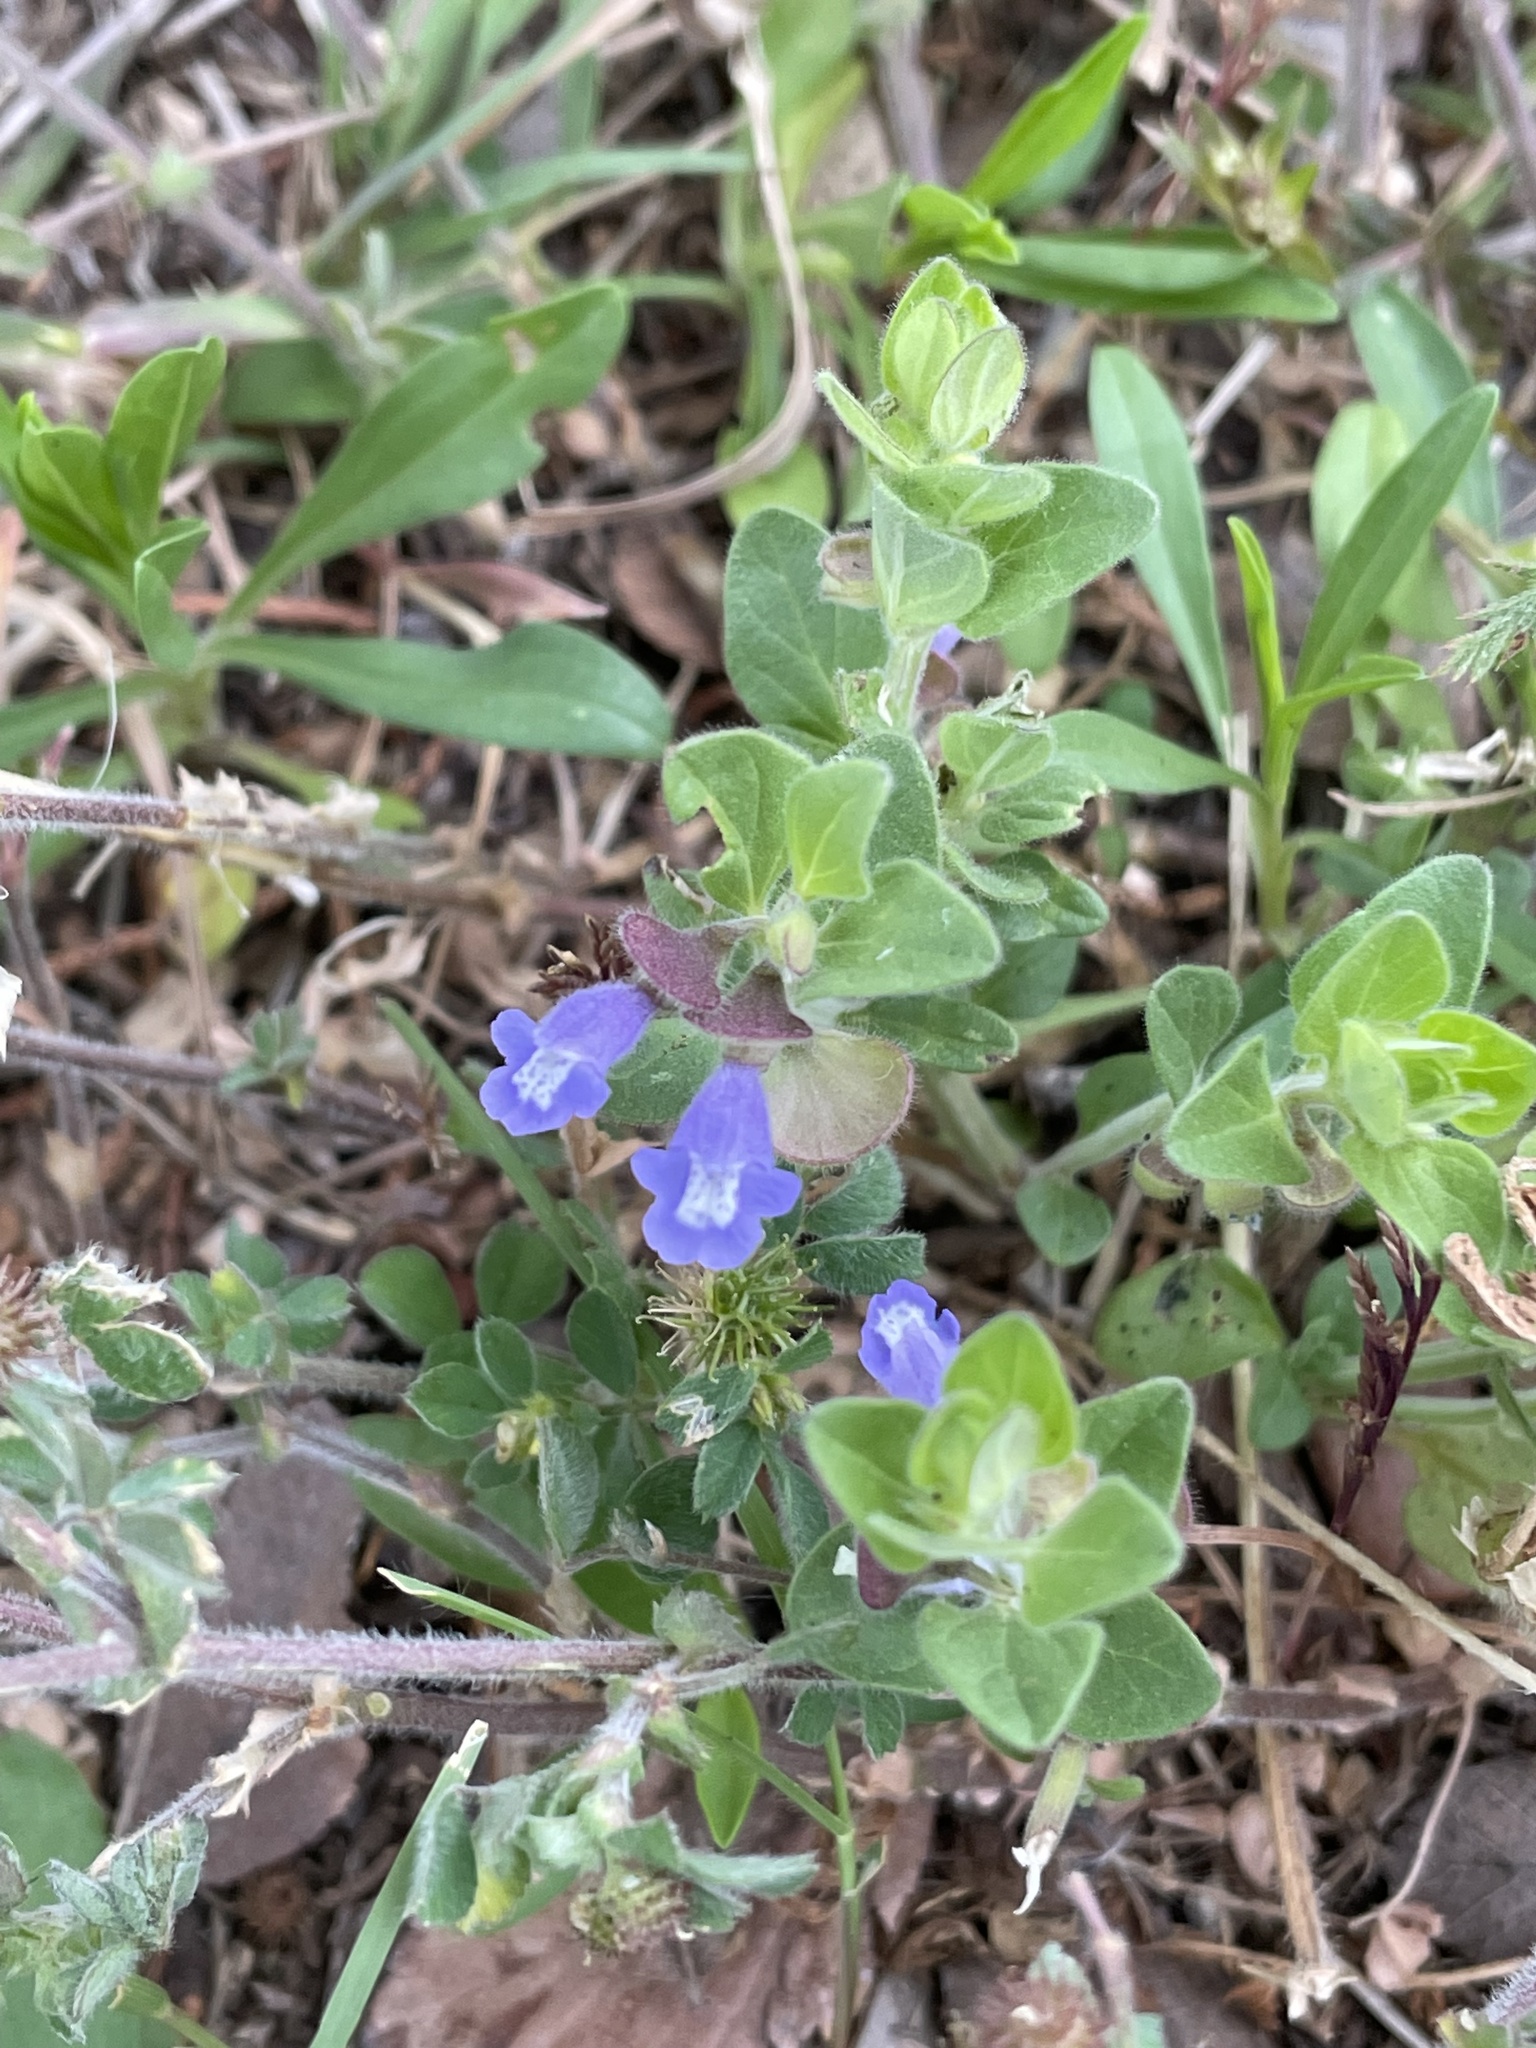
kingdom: Plantae
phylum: Tracheophyta
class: Magnoliopsida
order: Lamiales
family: Lamiaceae
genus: Scutellaria
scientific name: Scutellaria drummondii
